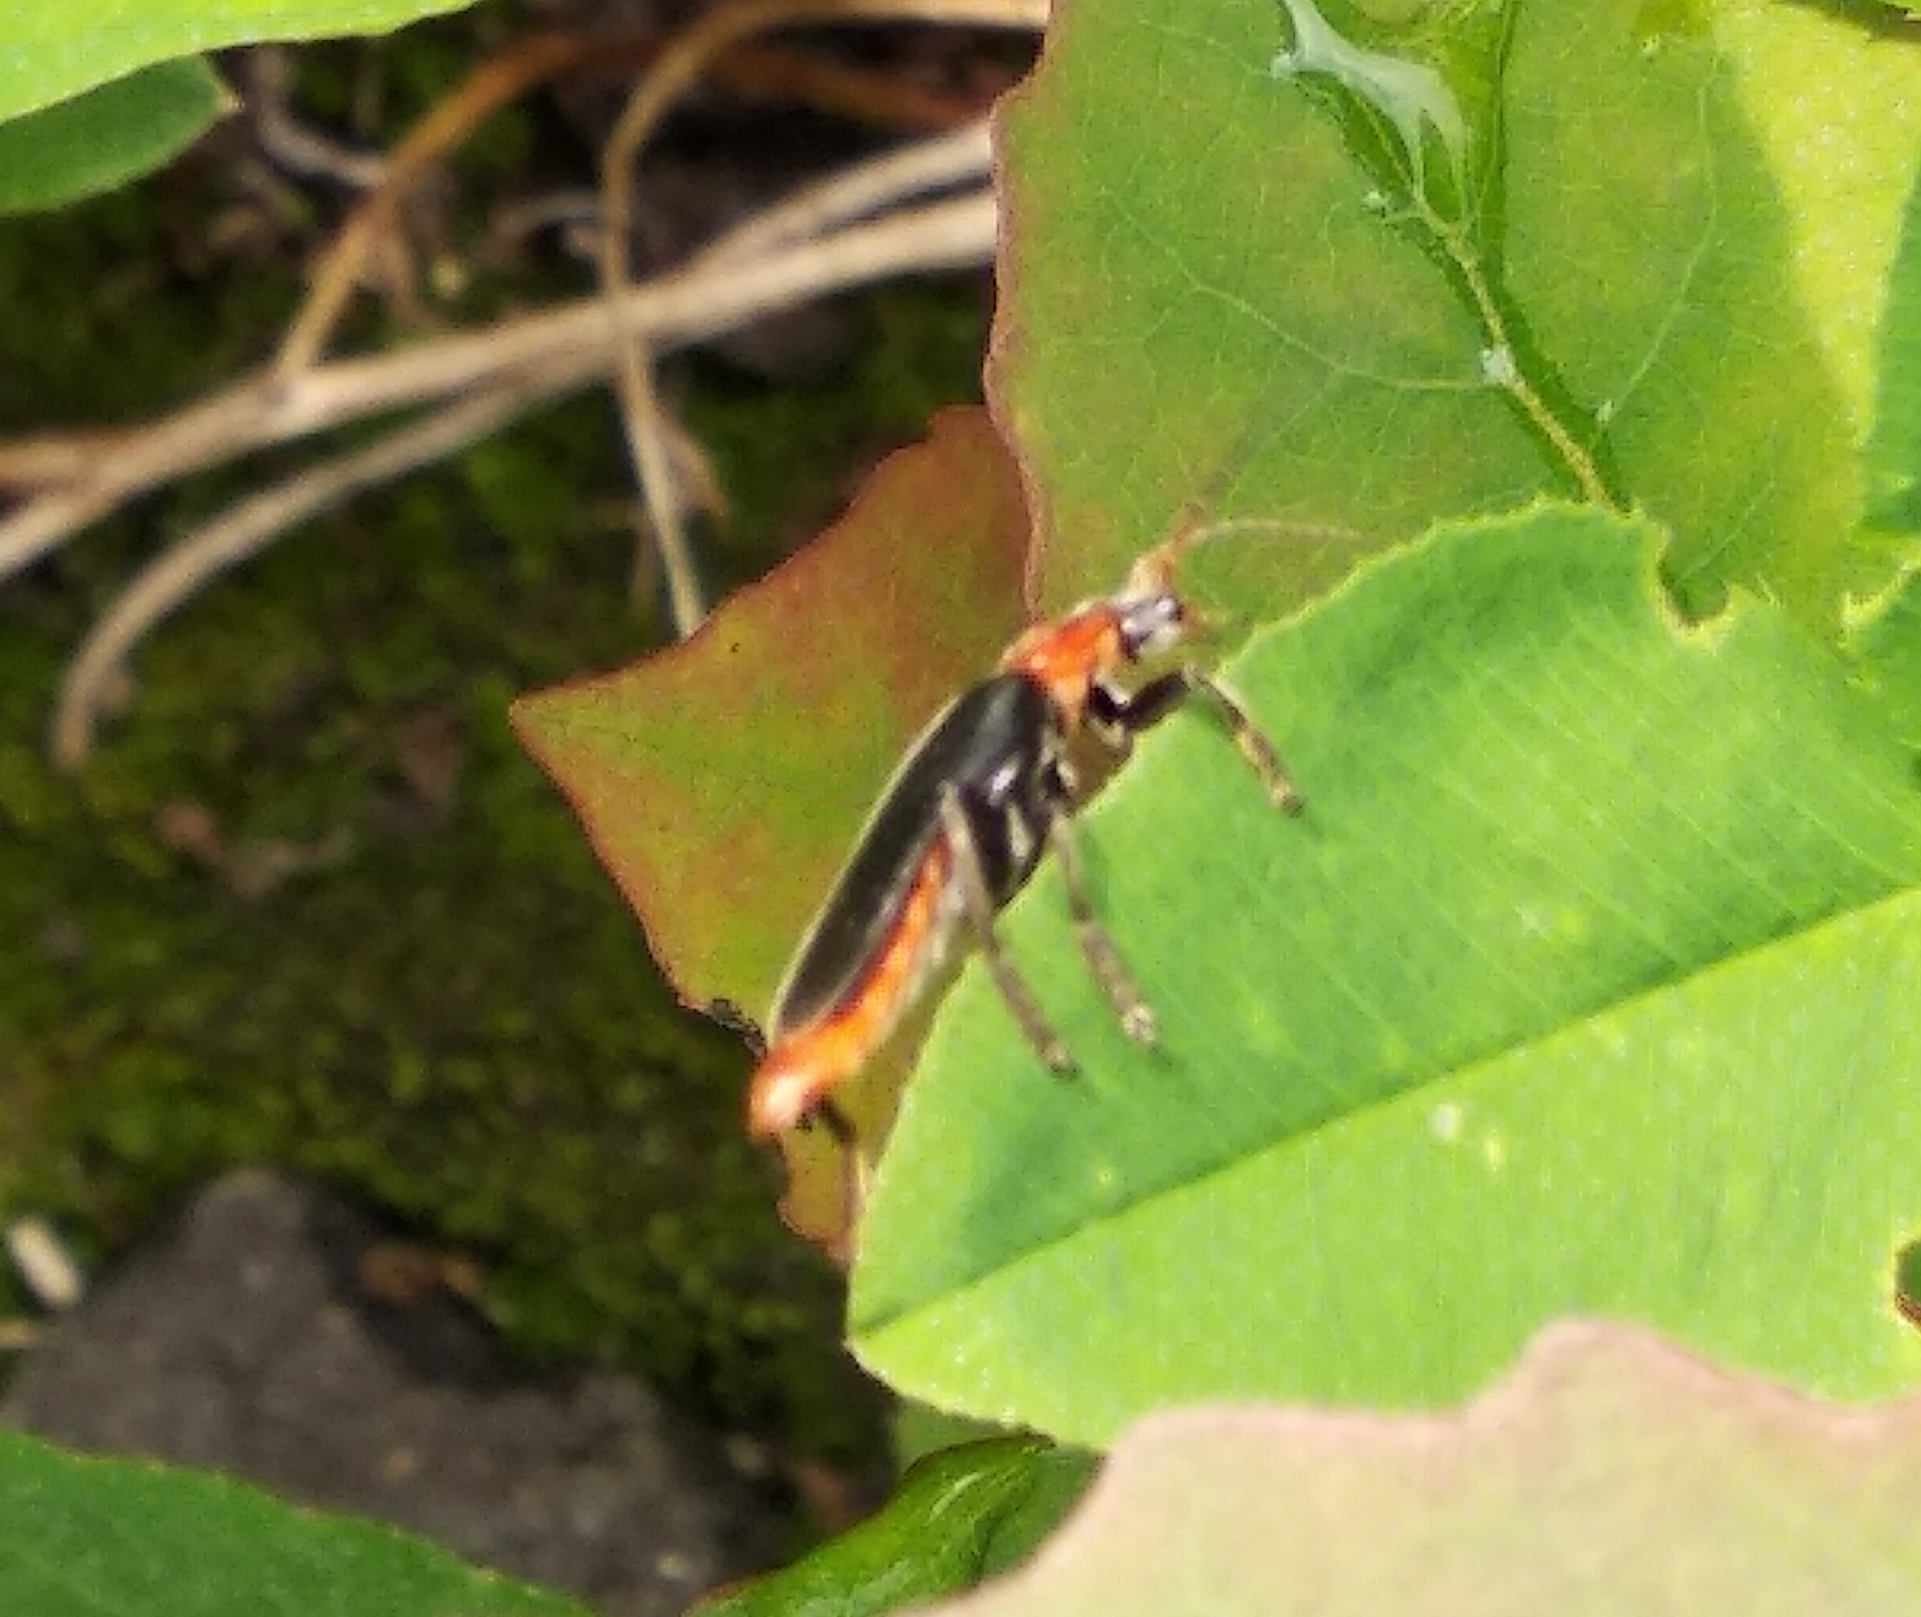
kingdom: Animalia
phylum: Arthropoda
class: Insecta
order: Coleoptera
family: Cantharidae
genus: Cantharis
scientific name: Cantharis fusca
